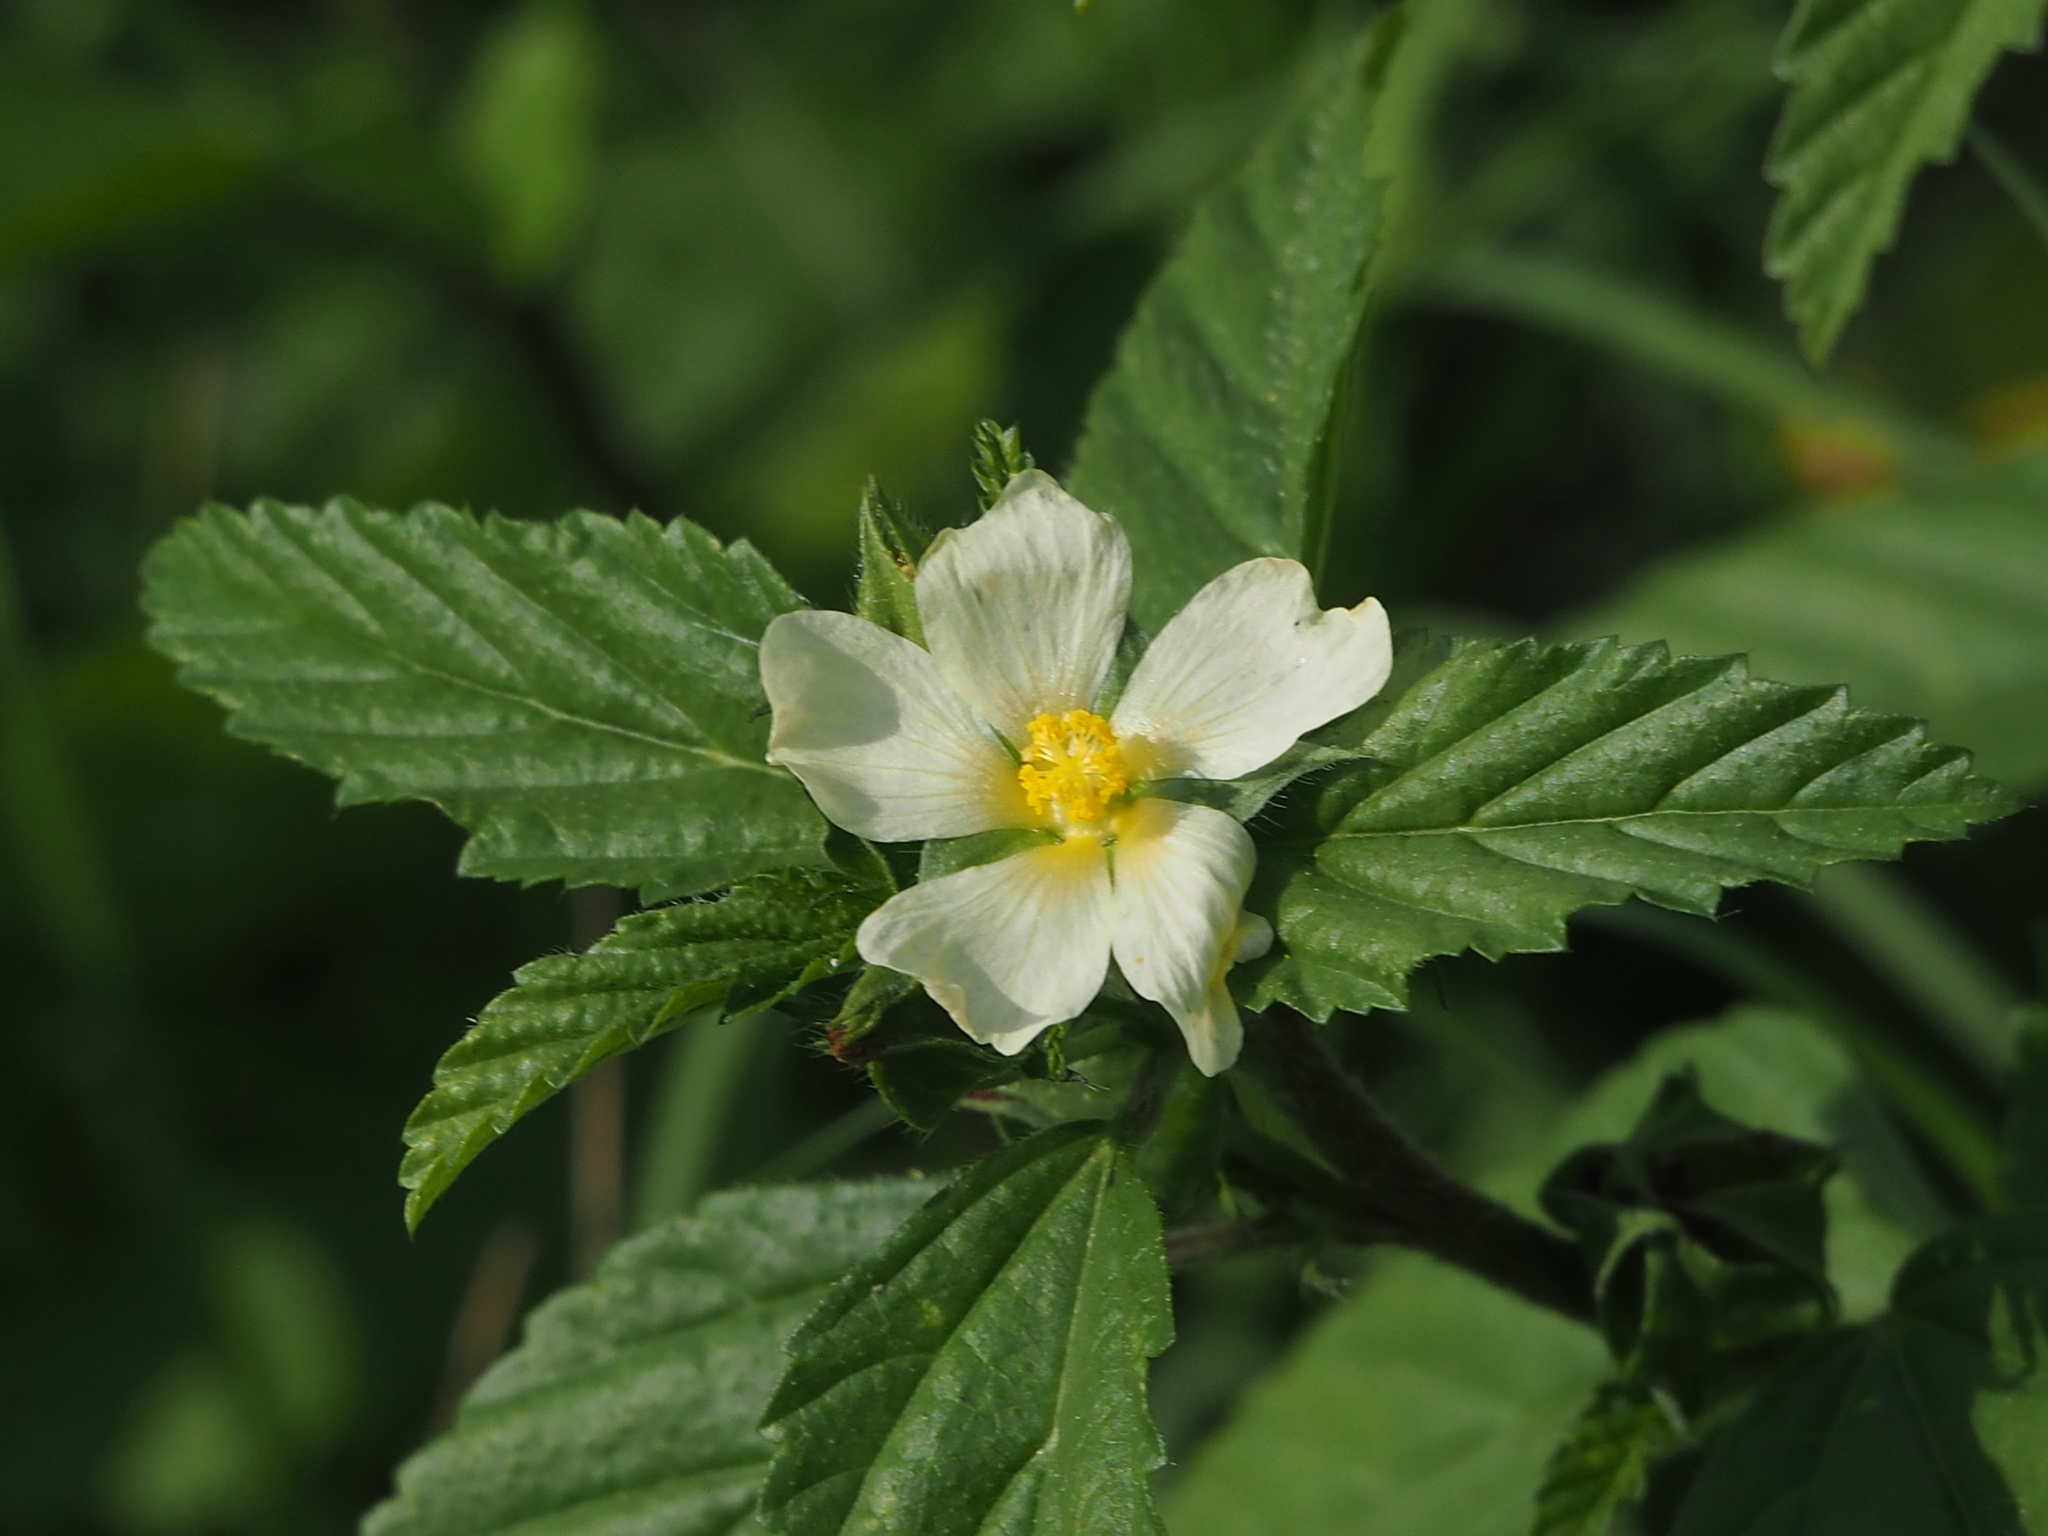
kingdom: Plantae
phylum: Tracheophyta
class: Magnoliopsida
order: Malvales
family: Malvaceae
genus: Malvastrum
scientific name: Malvastrum coromandelianum
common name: Threelobe false mallow
